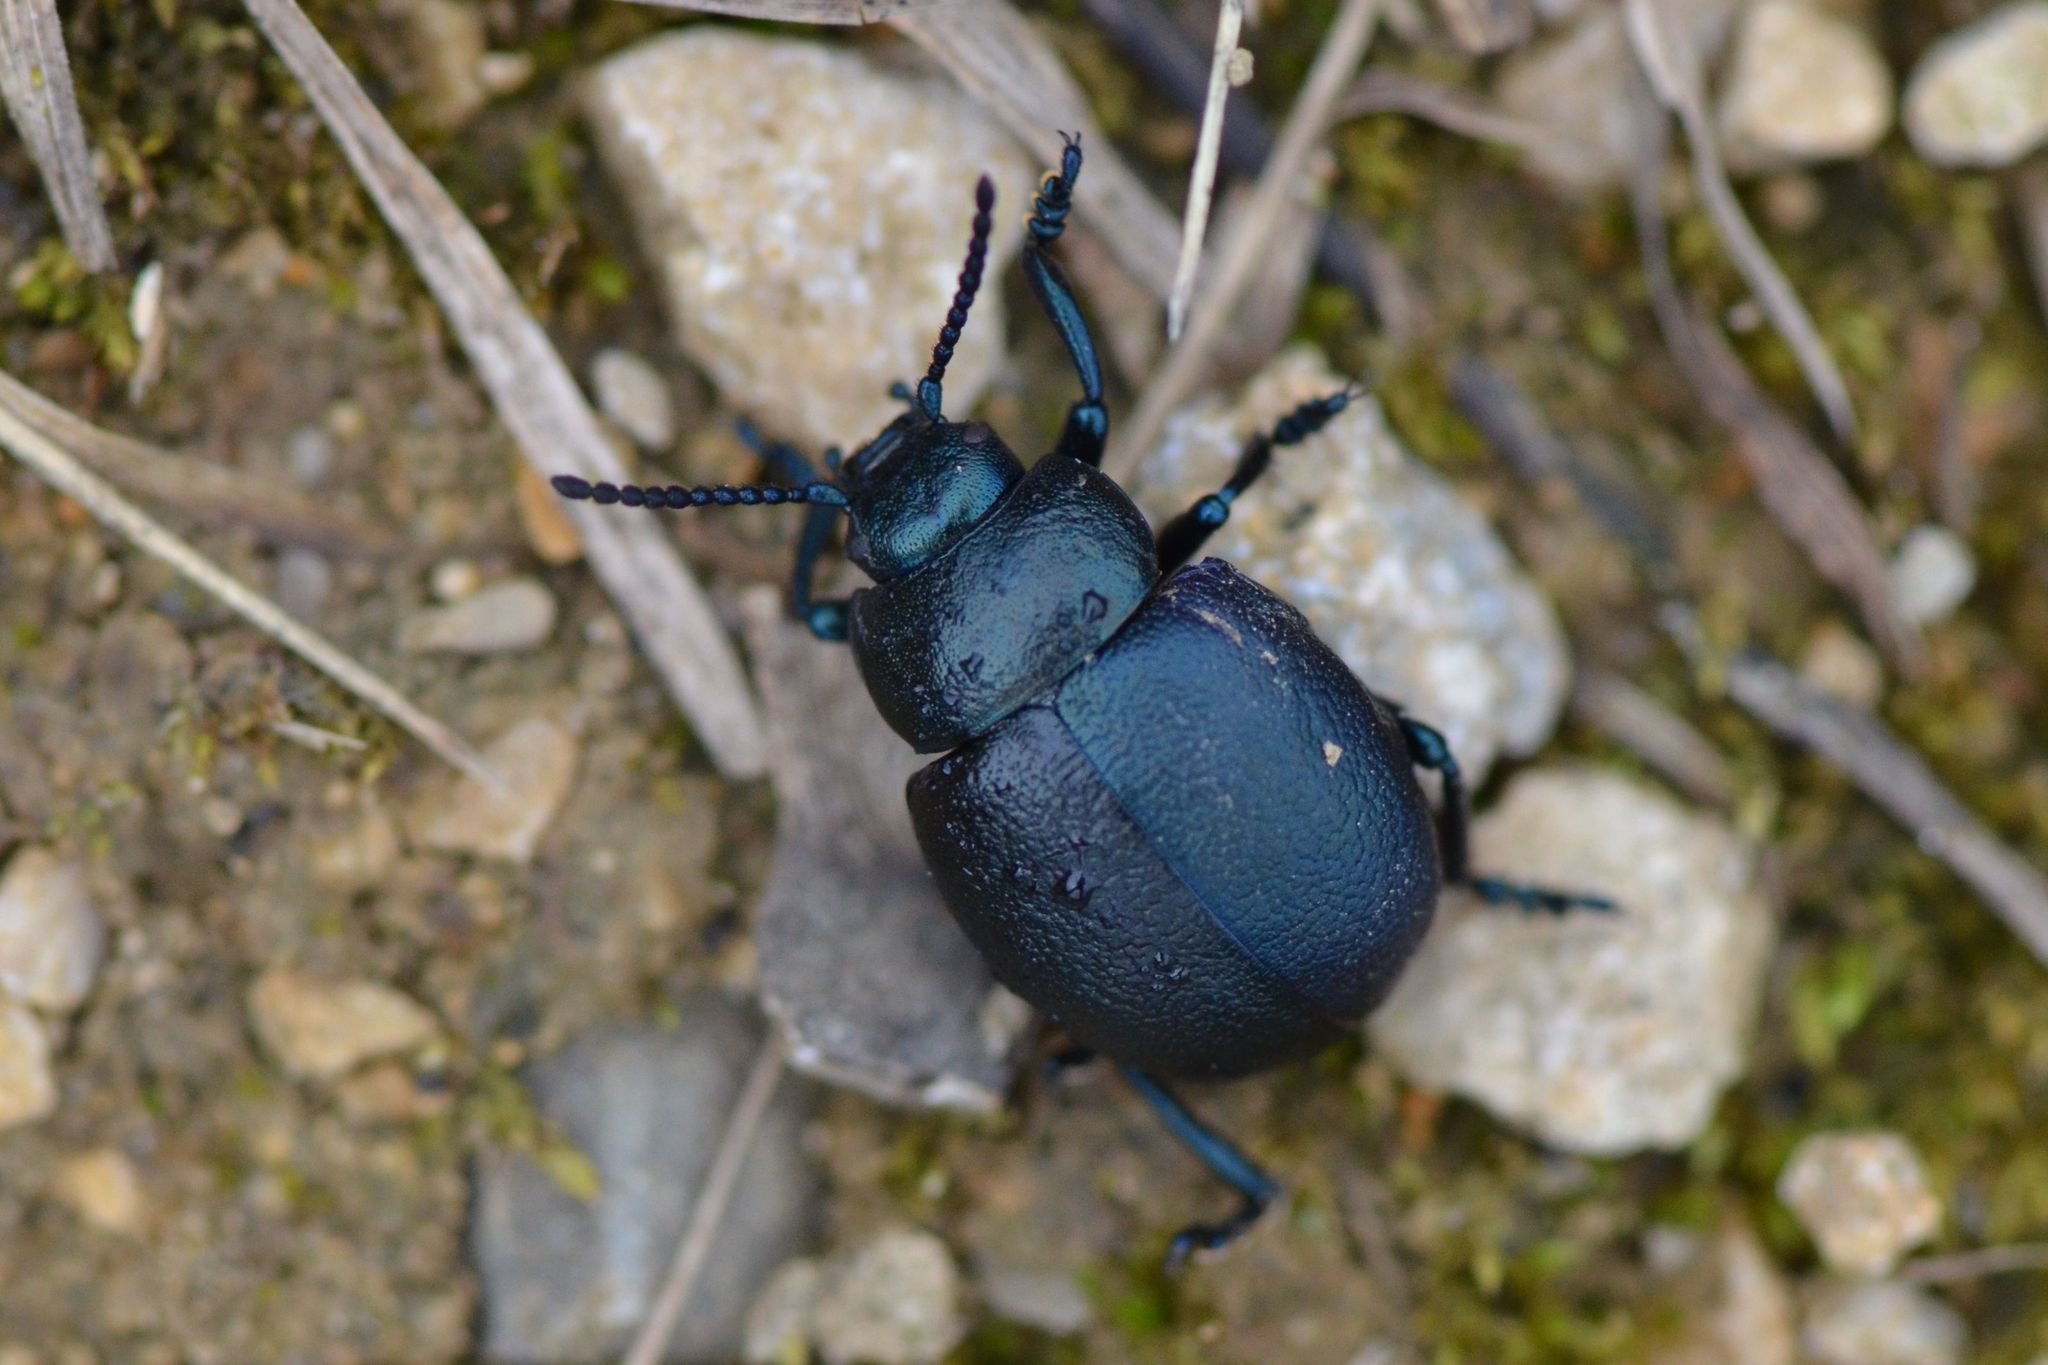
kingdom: Animalia
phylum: Arthropoda
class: Insecta
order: Coleoptera
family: Chrysomelidae
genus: Timarcha
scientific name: Timarcha goettingensis
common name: Small bloody-nosed beetle
